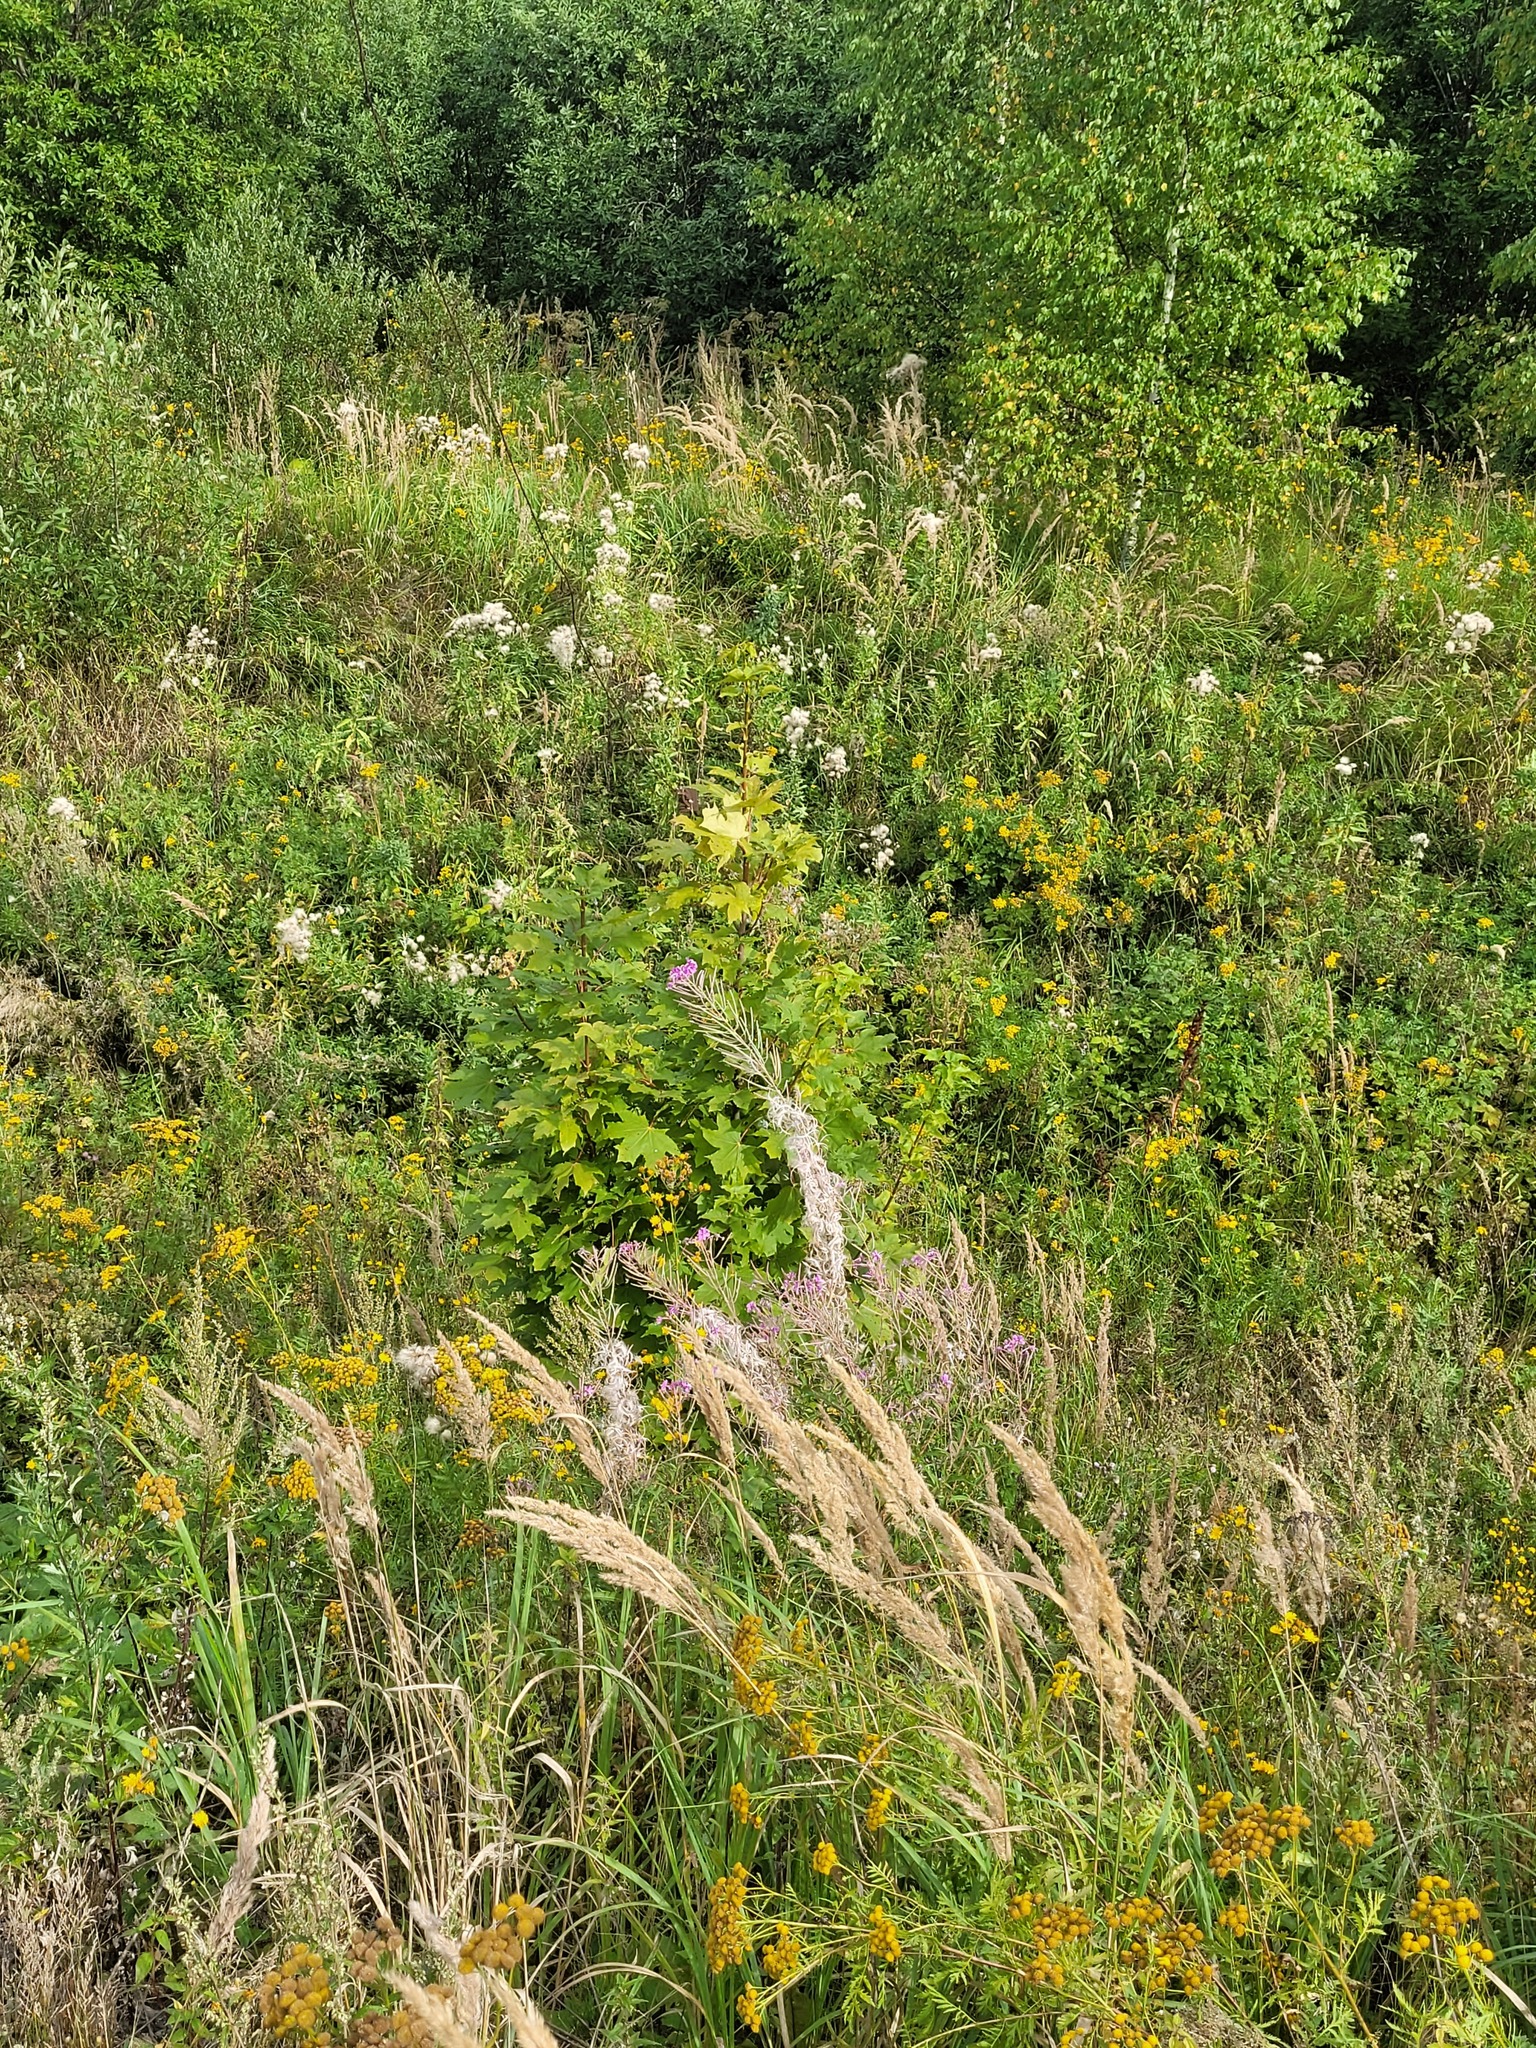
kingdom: Plantae
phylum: Tracheophyta
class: Magnoliopsida
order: Myrtales
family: Onagraceae
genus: Chamaenerion
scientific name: Chamaenerion angustifolium
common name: Fireweed
